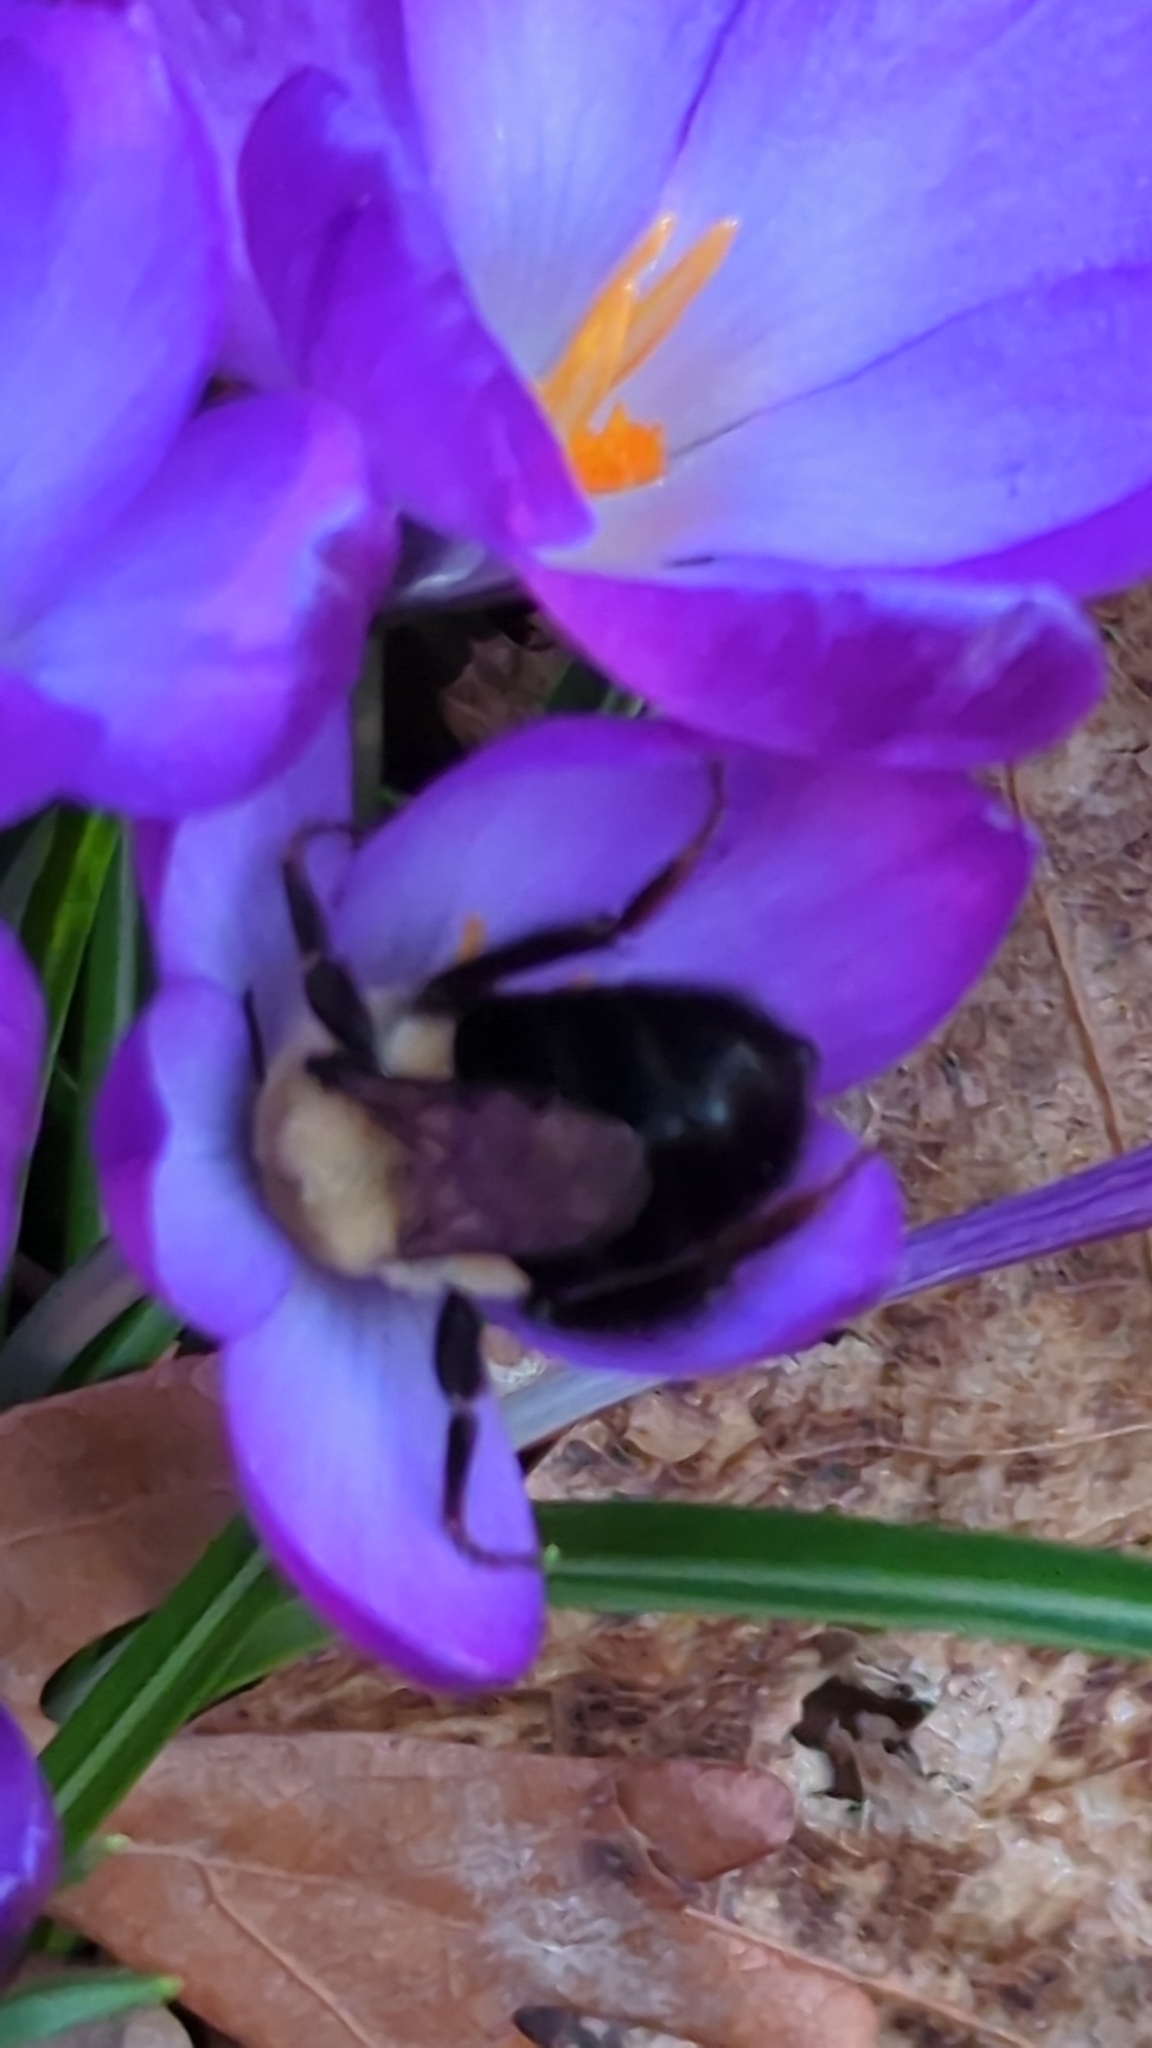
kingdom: Animalia
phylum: Arthropoda
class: Insecta
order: Hymenoptera
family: Apidae
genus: Bombus
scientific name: Bombus impatiens
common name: Common eastern bumble bee
